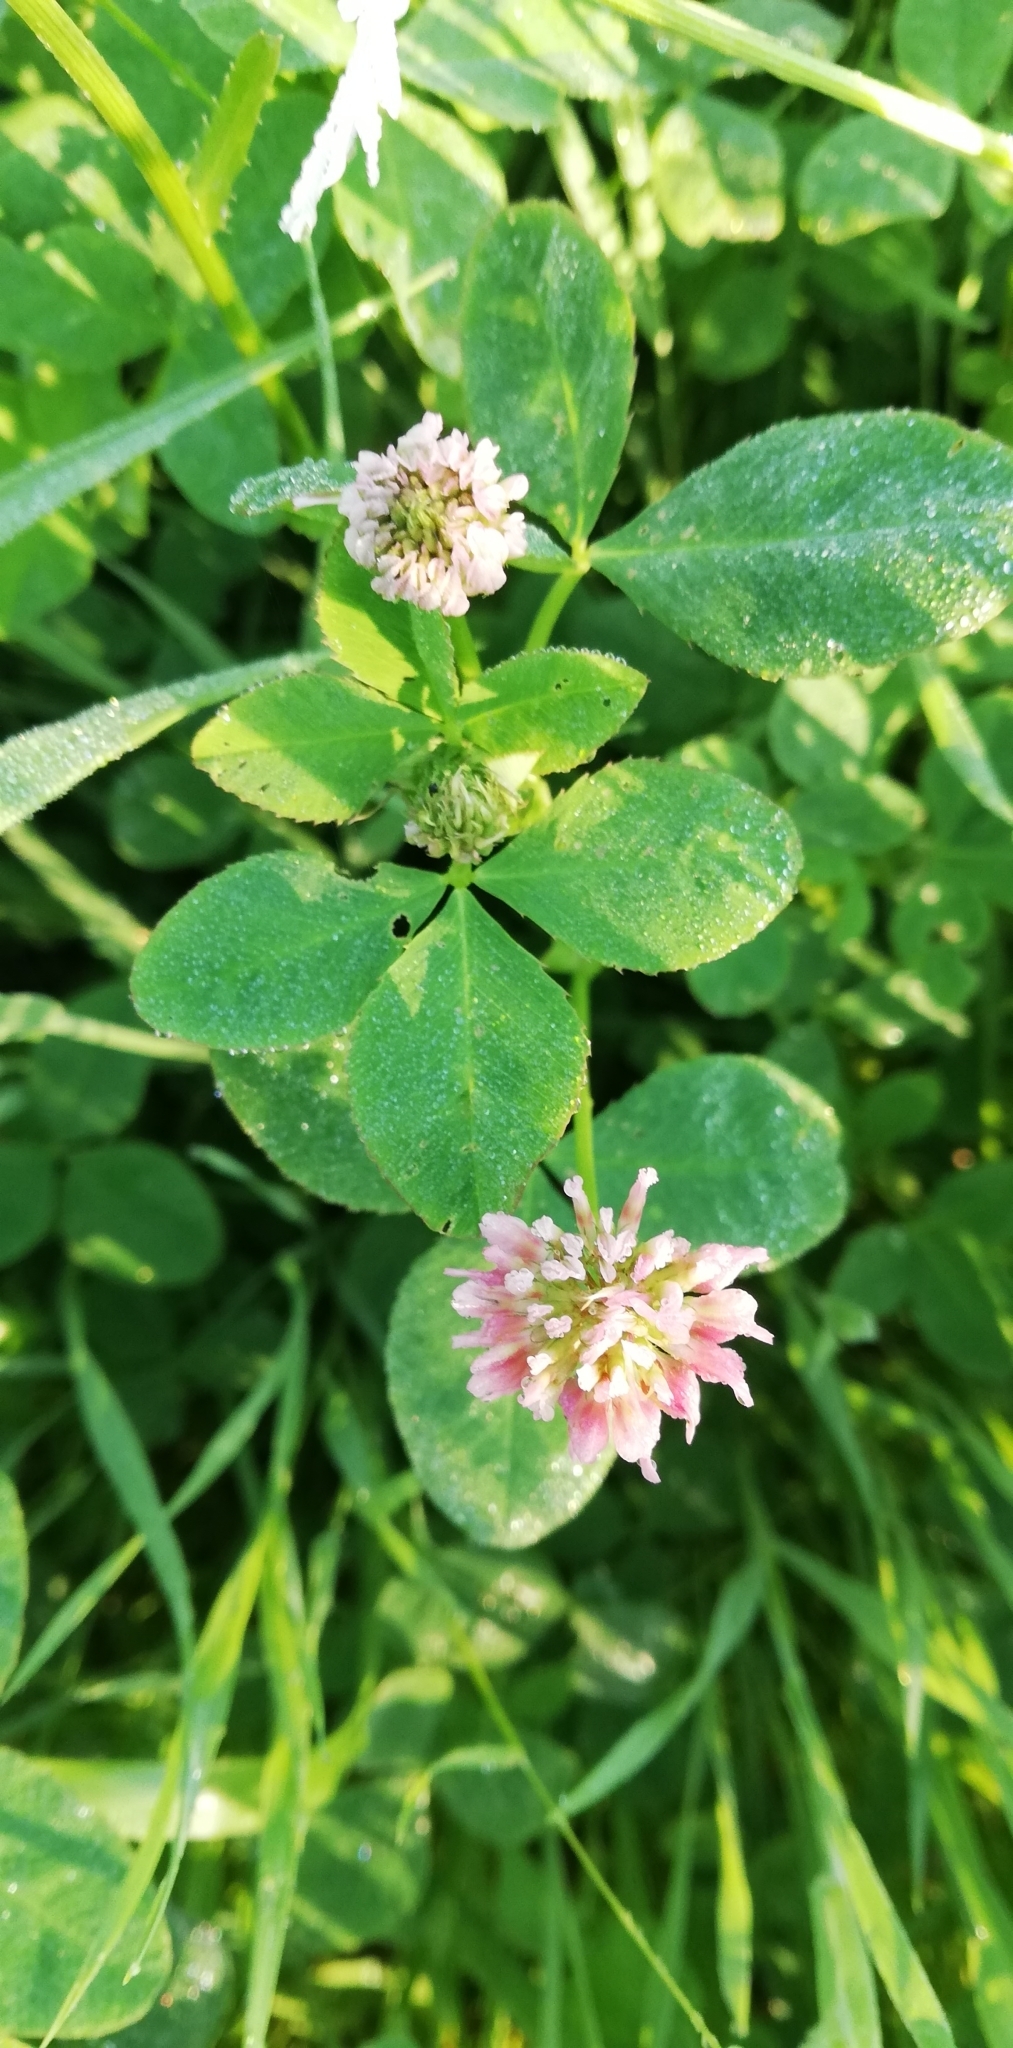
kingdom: Plantae
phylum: Tracheophyta
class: Magnoliopsida
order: Fabales
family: Fabaceae
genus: Trifolium
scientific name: Trifolium hybridum
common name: Alsike clover
